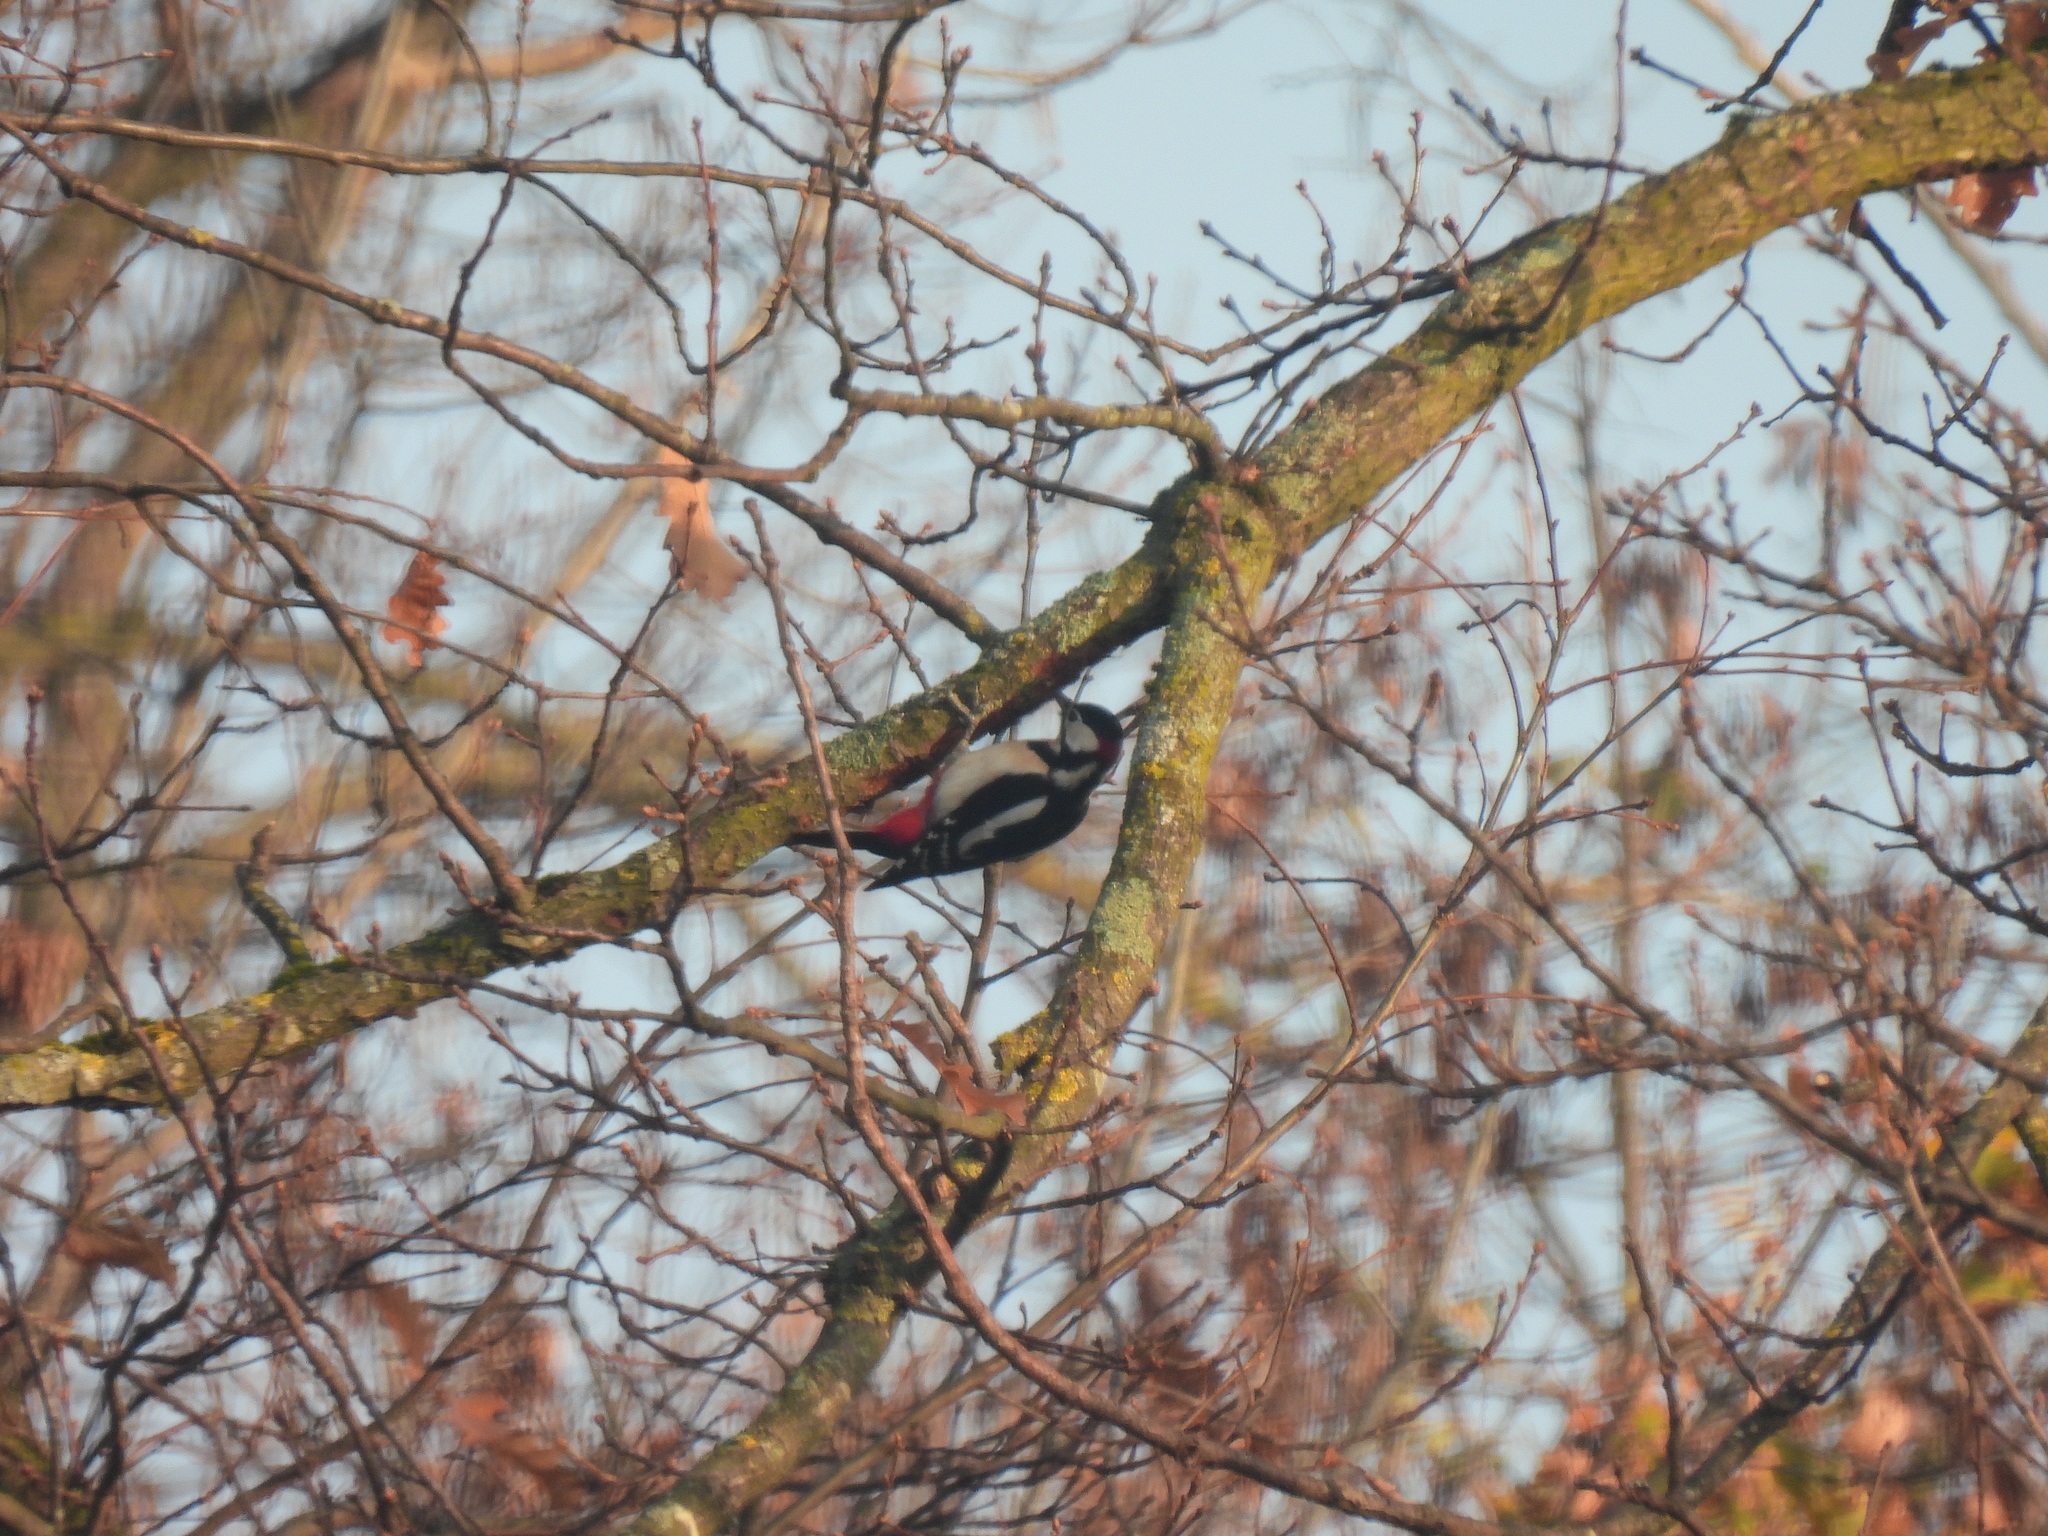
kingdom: Animalia
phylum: Chordata
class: Aves
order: Piciformes
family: Picidae
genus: Dendrocopos
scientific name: Dendrocopos major
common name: Great spotted woodpecker
